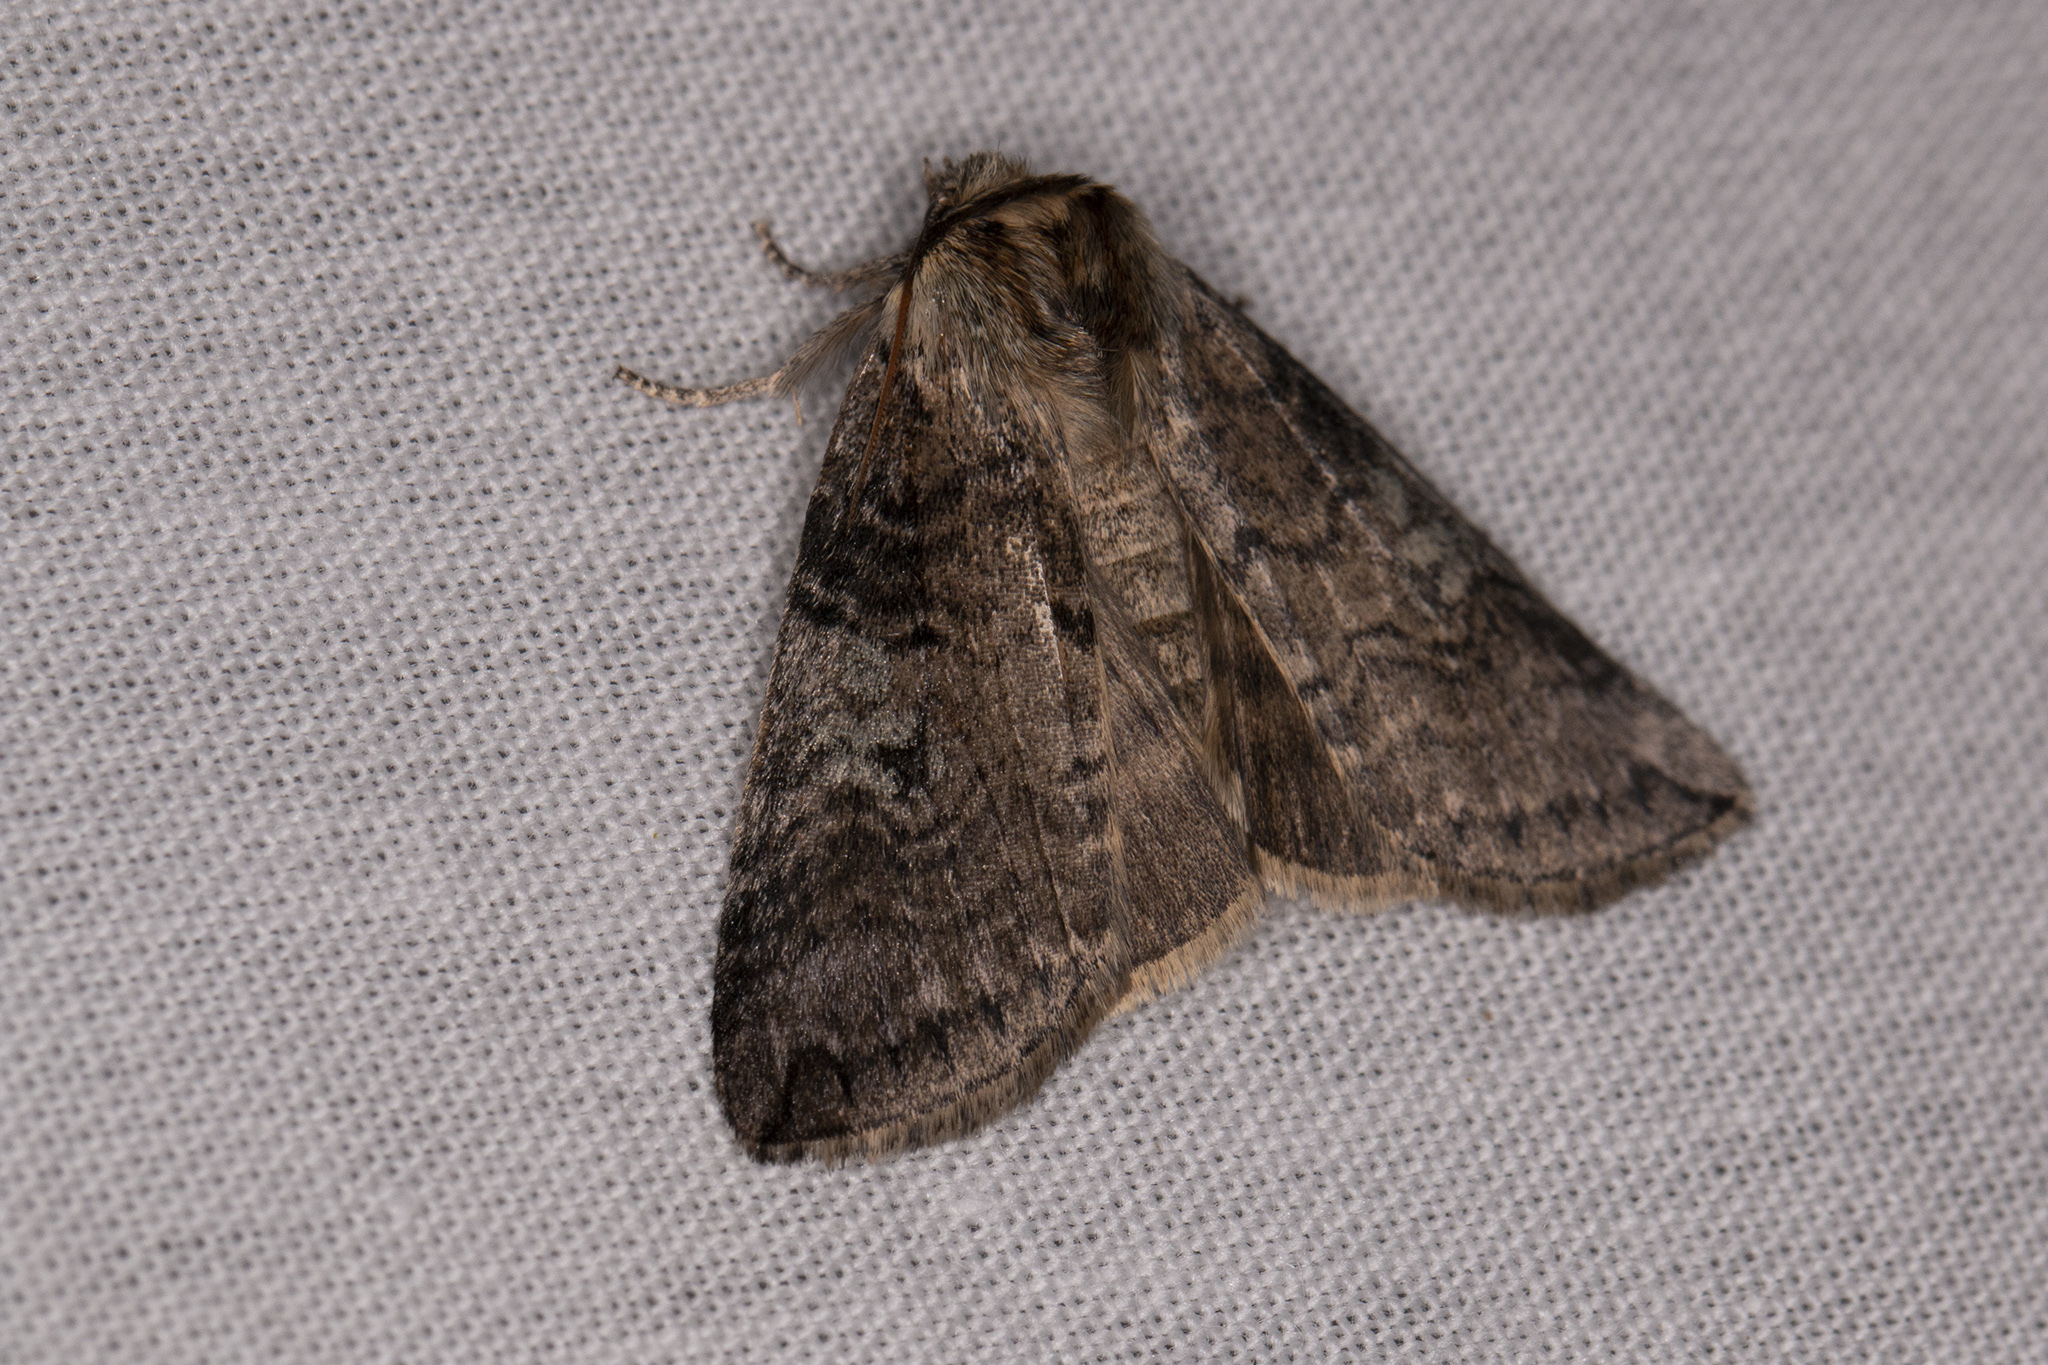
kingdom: Animalia
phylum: Arthropoda
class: Insecta
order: Lepidoptera
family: Drepanidae
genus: Tethea
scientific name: Tethea or
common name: Poplar lutestring
